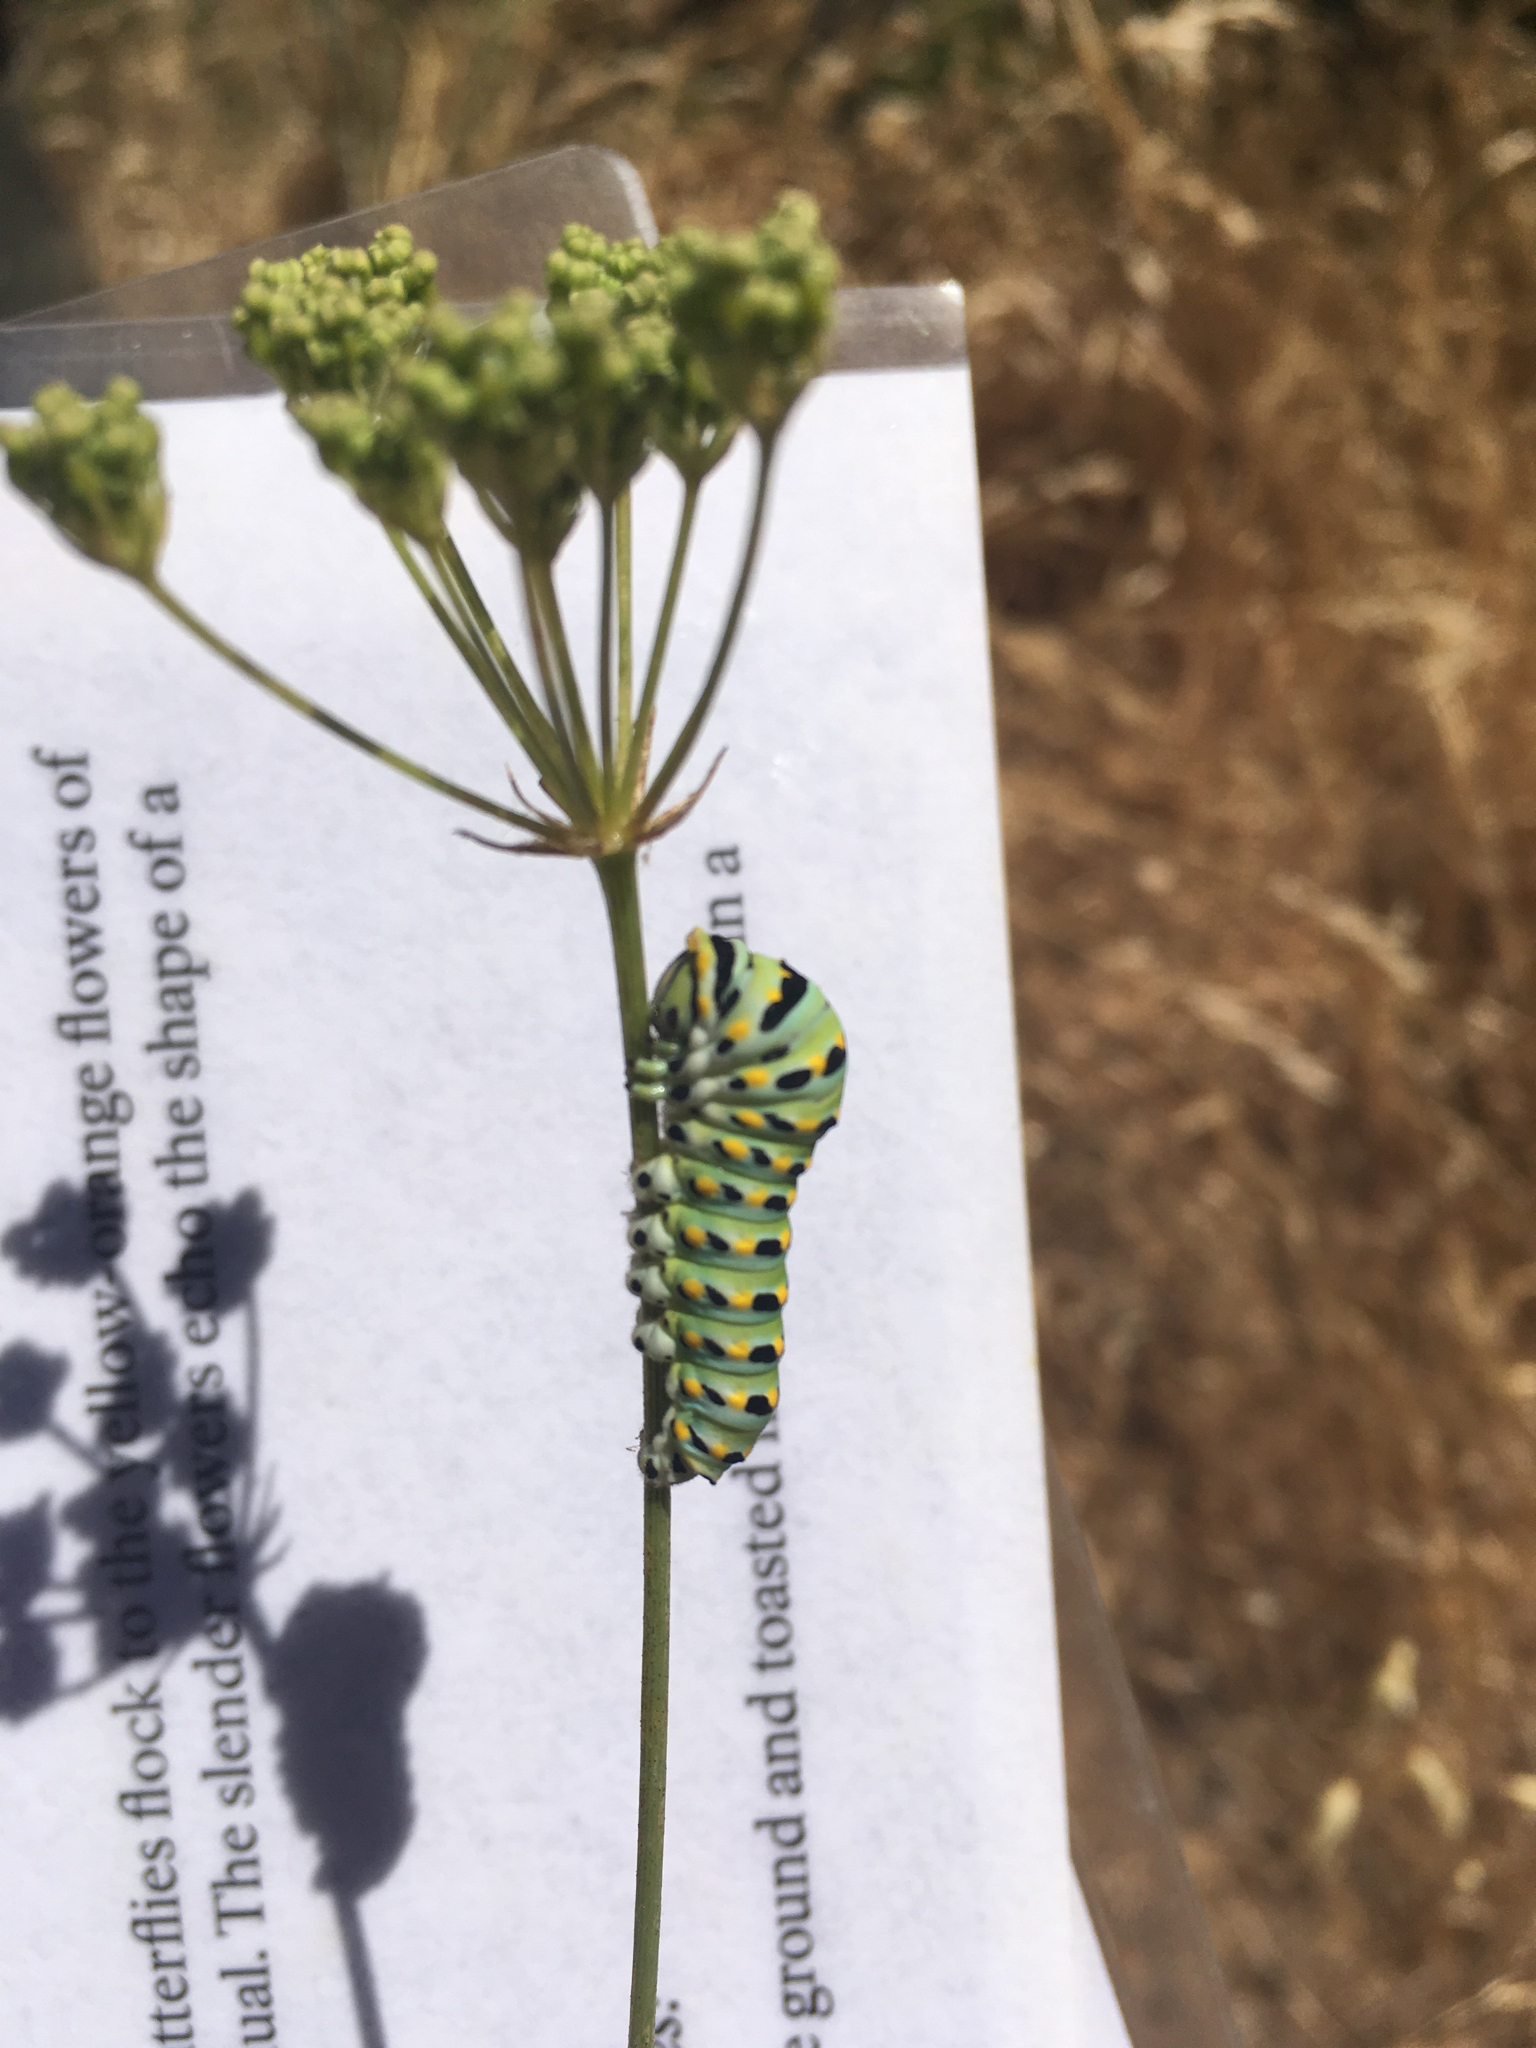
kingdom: Animalia
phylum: Arthropoda
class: Insecta
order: Lepidoptera
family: Papilionidae
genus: Papilio
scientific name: Papilio zelicaon
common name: Anise swallowtail
